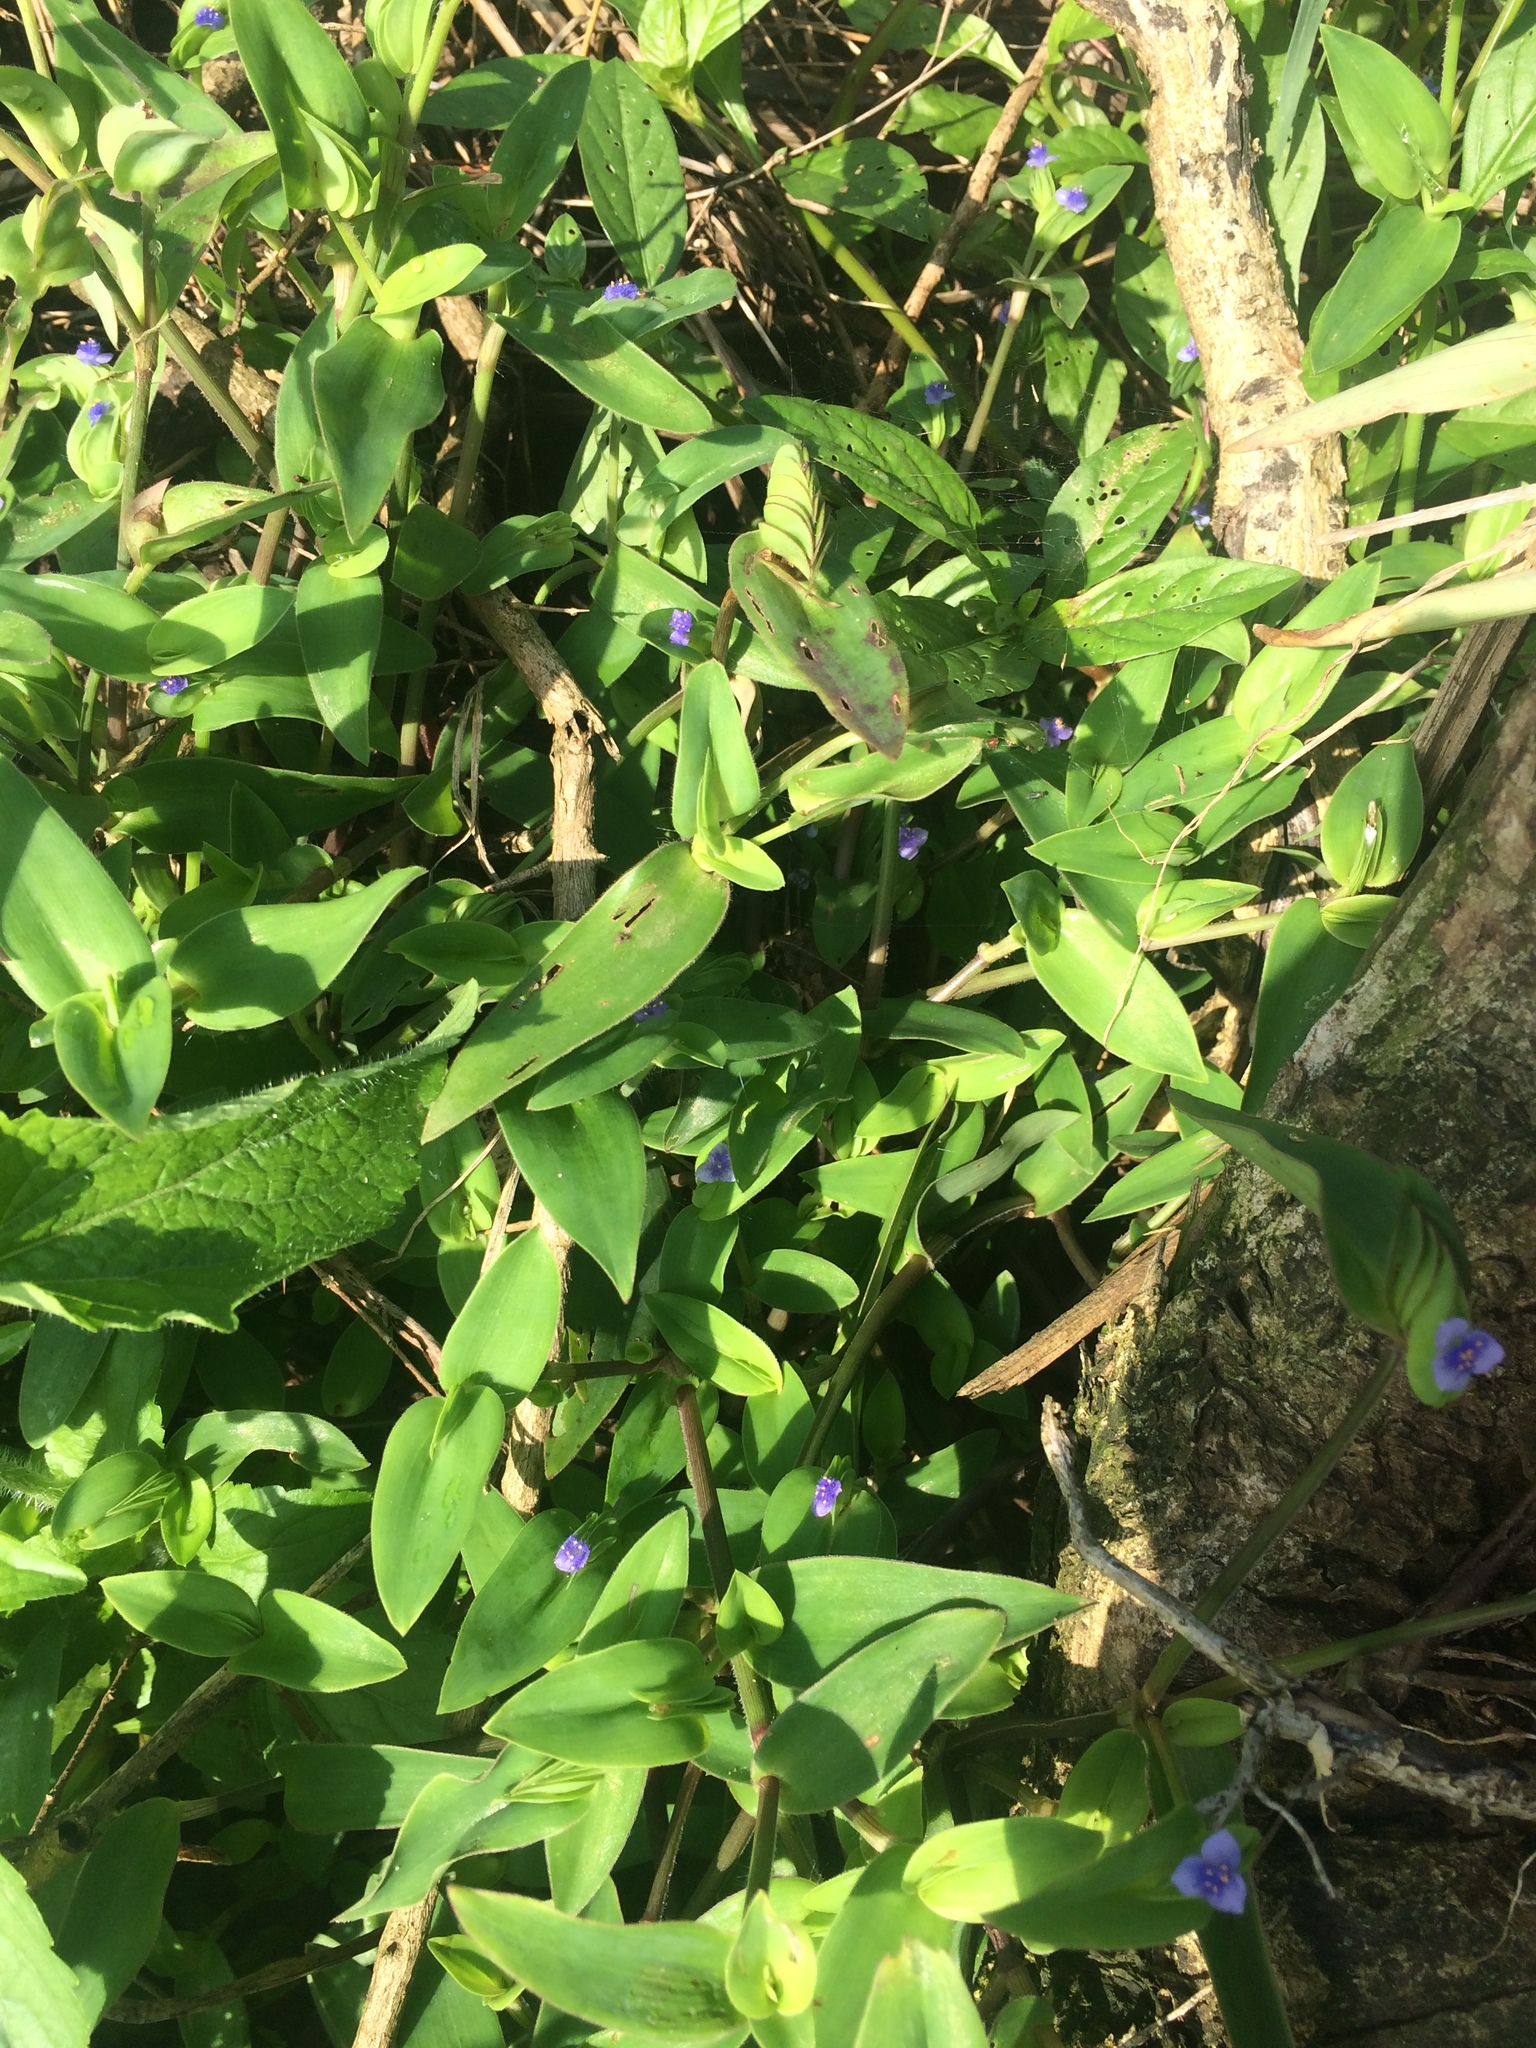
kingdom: Plantae
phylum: Tracheophyta
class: Liliopsida
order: Commelinales
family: Commelinaceae
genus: Cyanotis
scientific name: Cyanotis cristata
